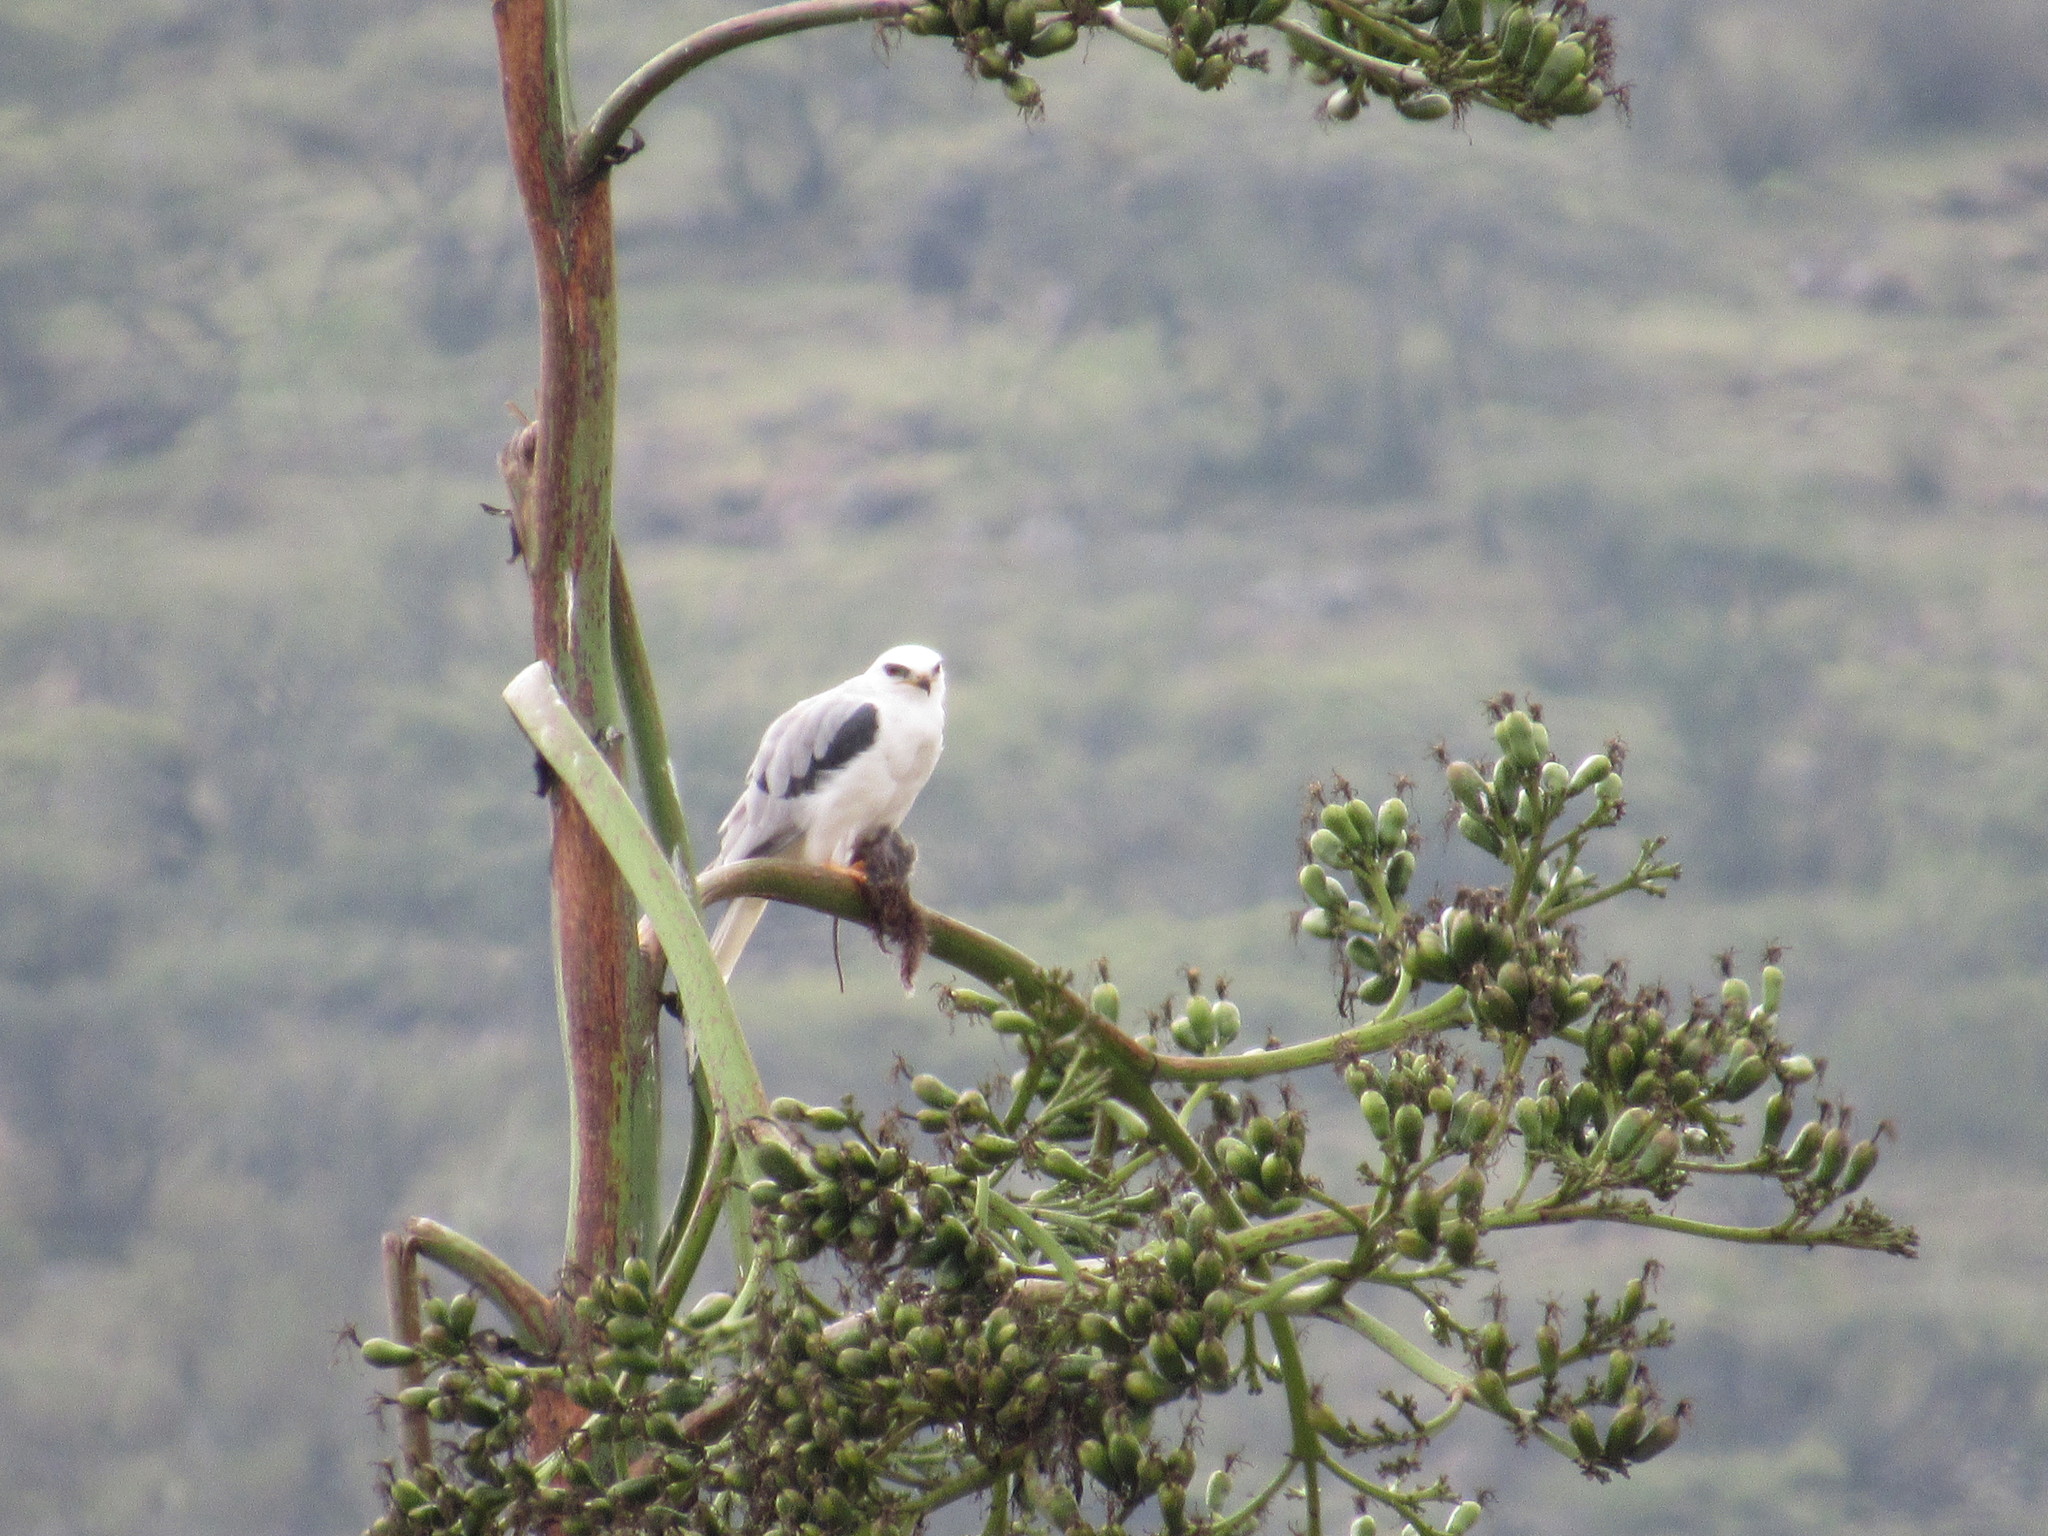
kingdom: Animalia
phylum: Chordata
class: Aves
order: Accipitriformes
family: Accipitridae
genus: Elanus
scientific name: Elanus leucurus
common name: White-tailed kite
